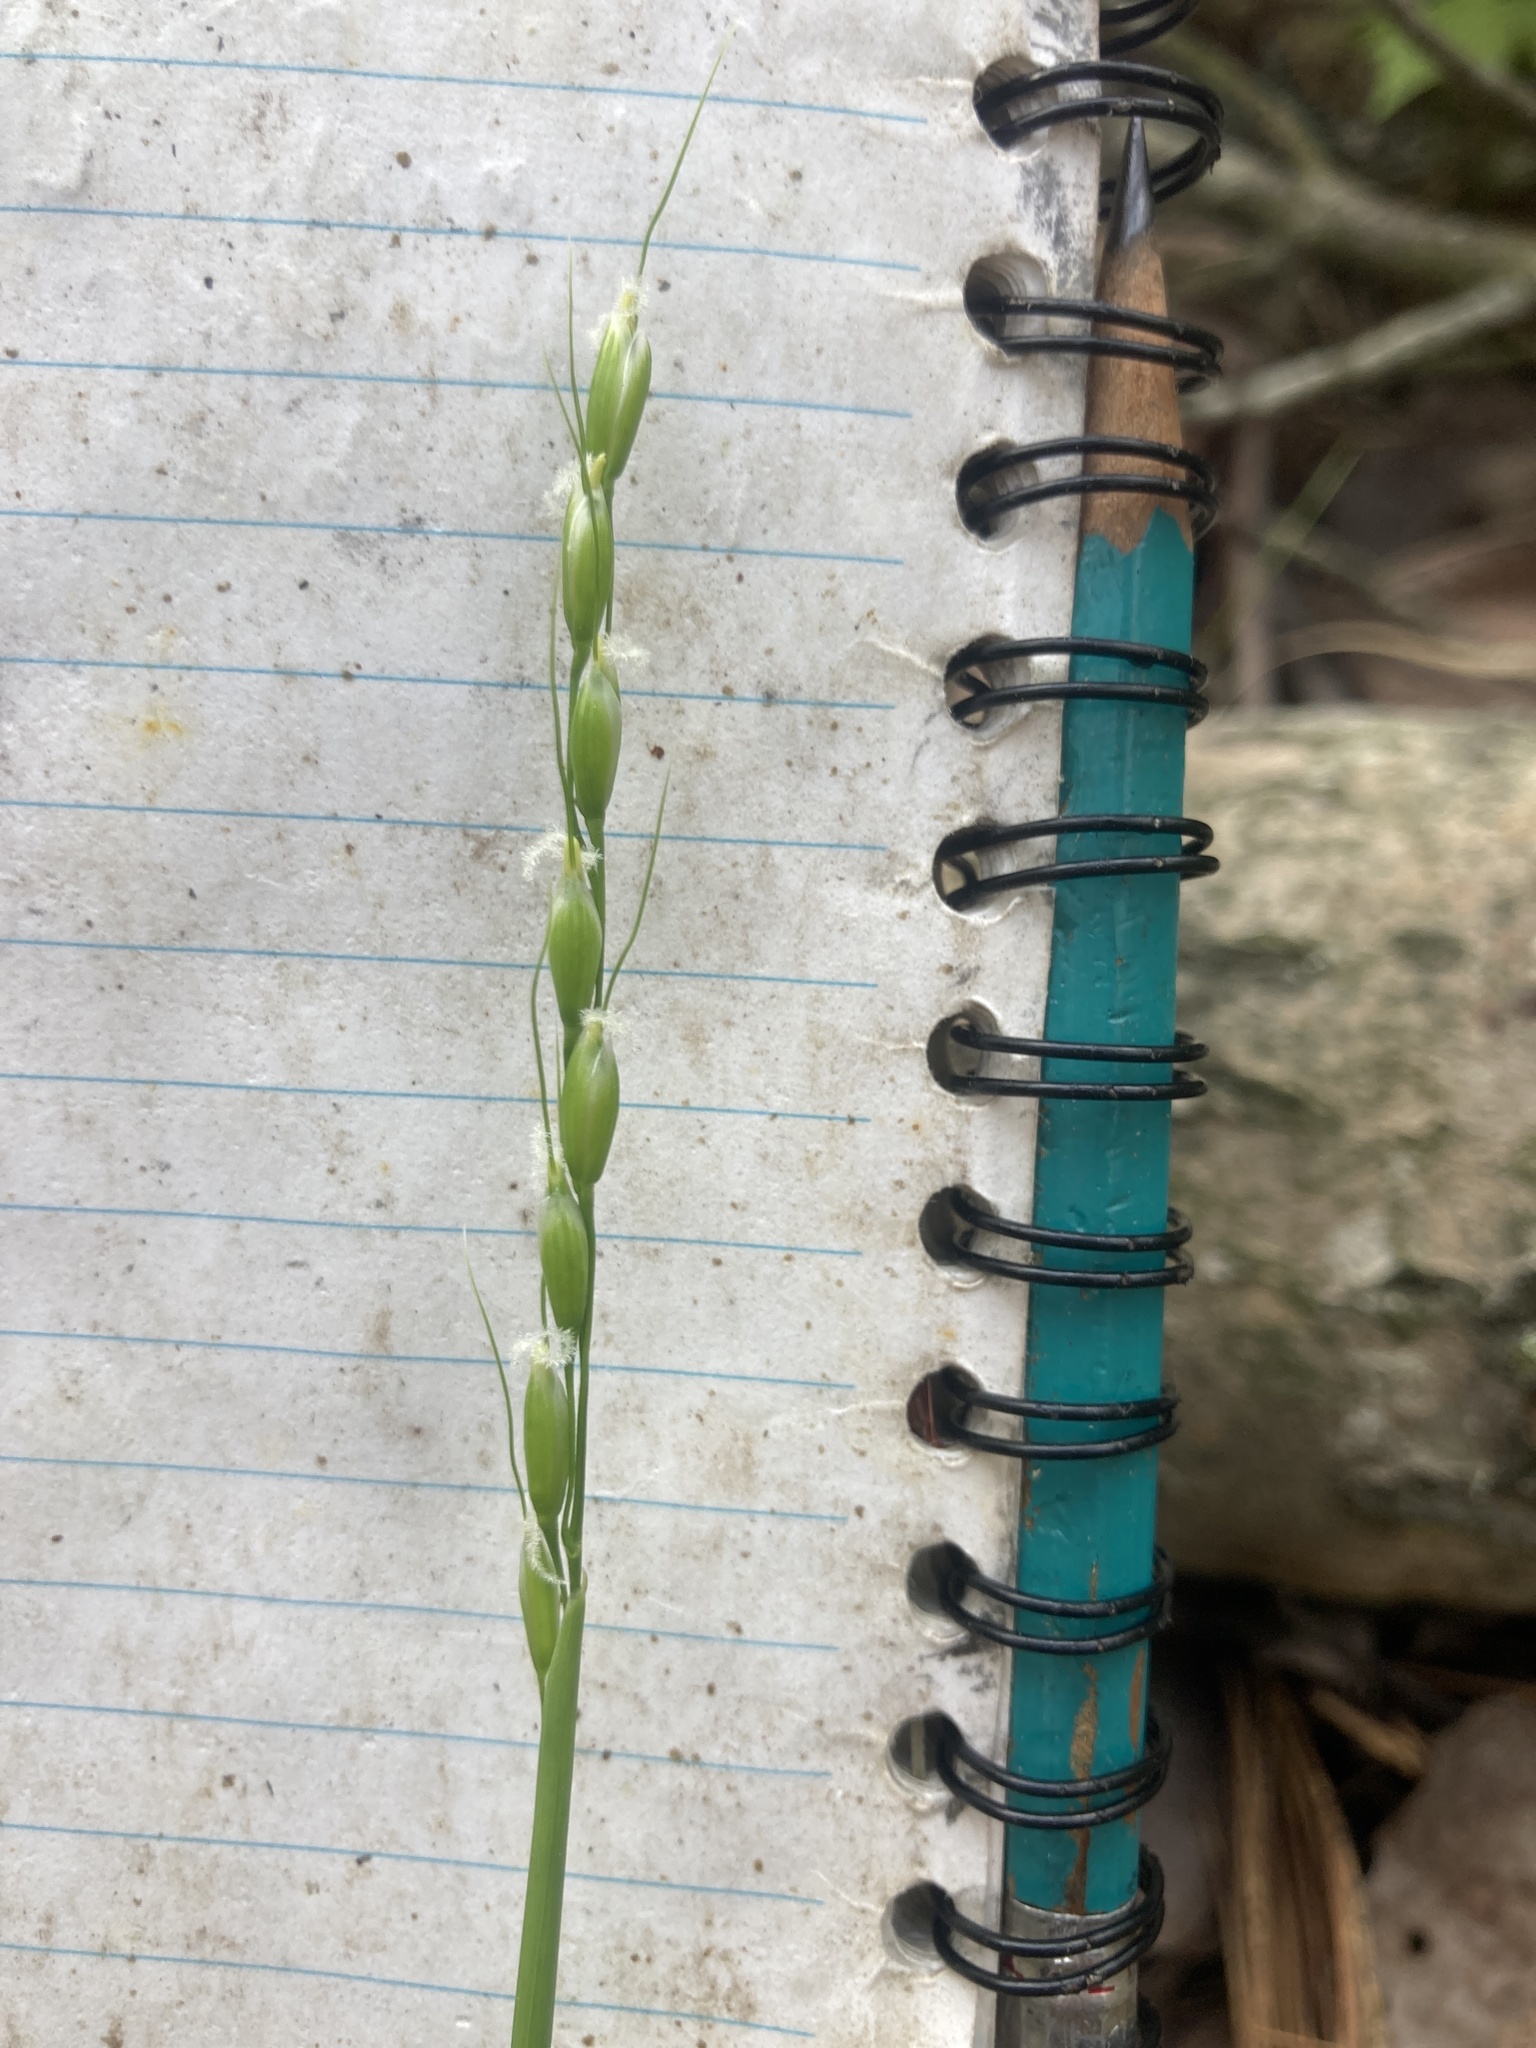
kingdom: Plantae
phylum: Tracheophyta
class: Liliopsida
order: Poales
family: Poaceae
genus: Oryzopsis
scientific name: Oryzopsis asperifolia
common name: Rough-leaved mountain rice
